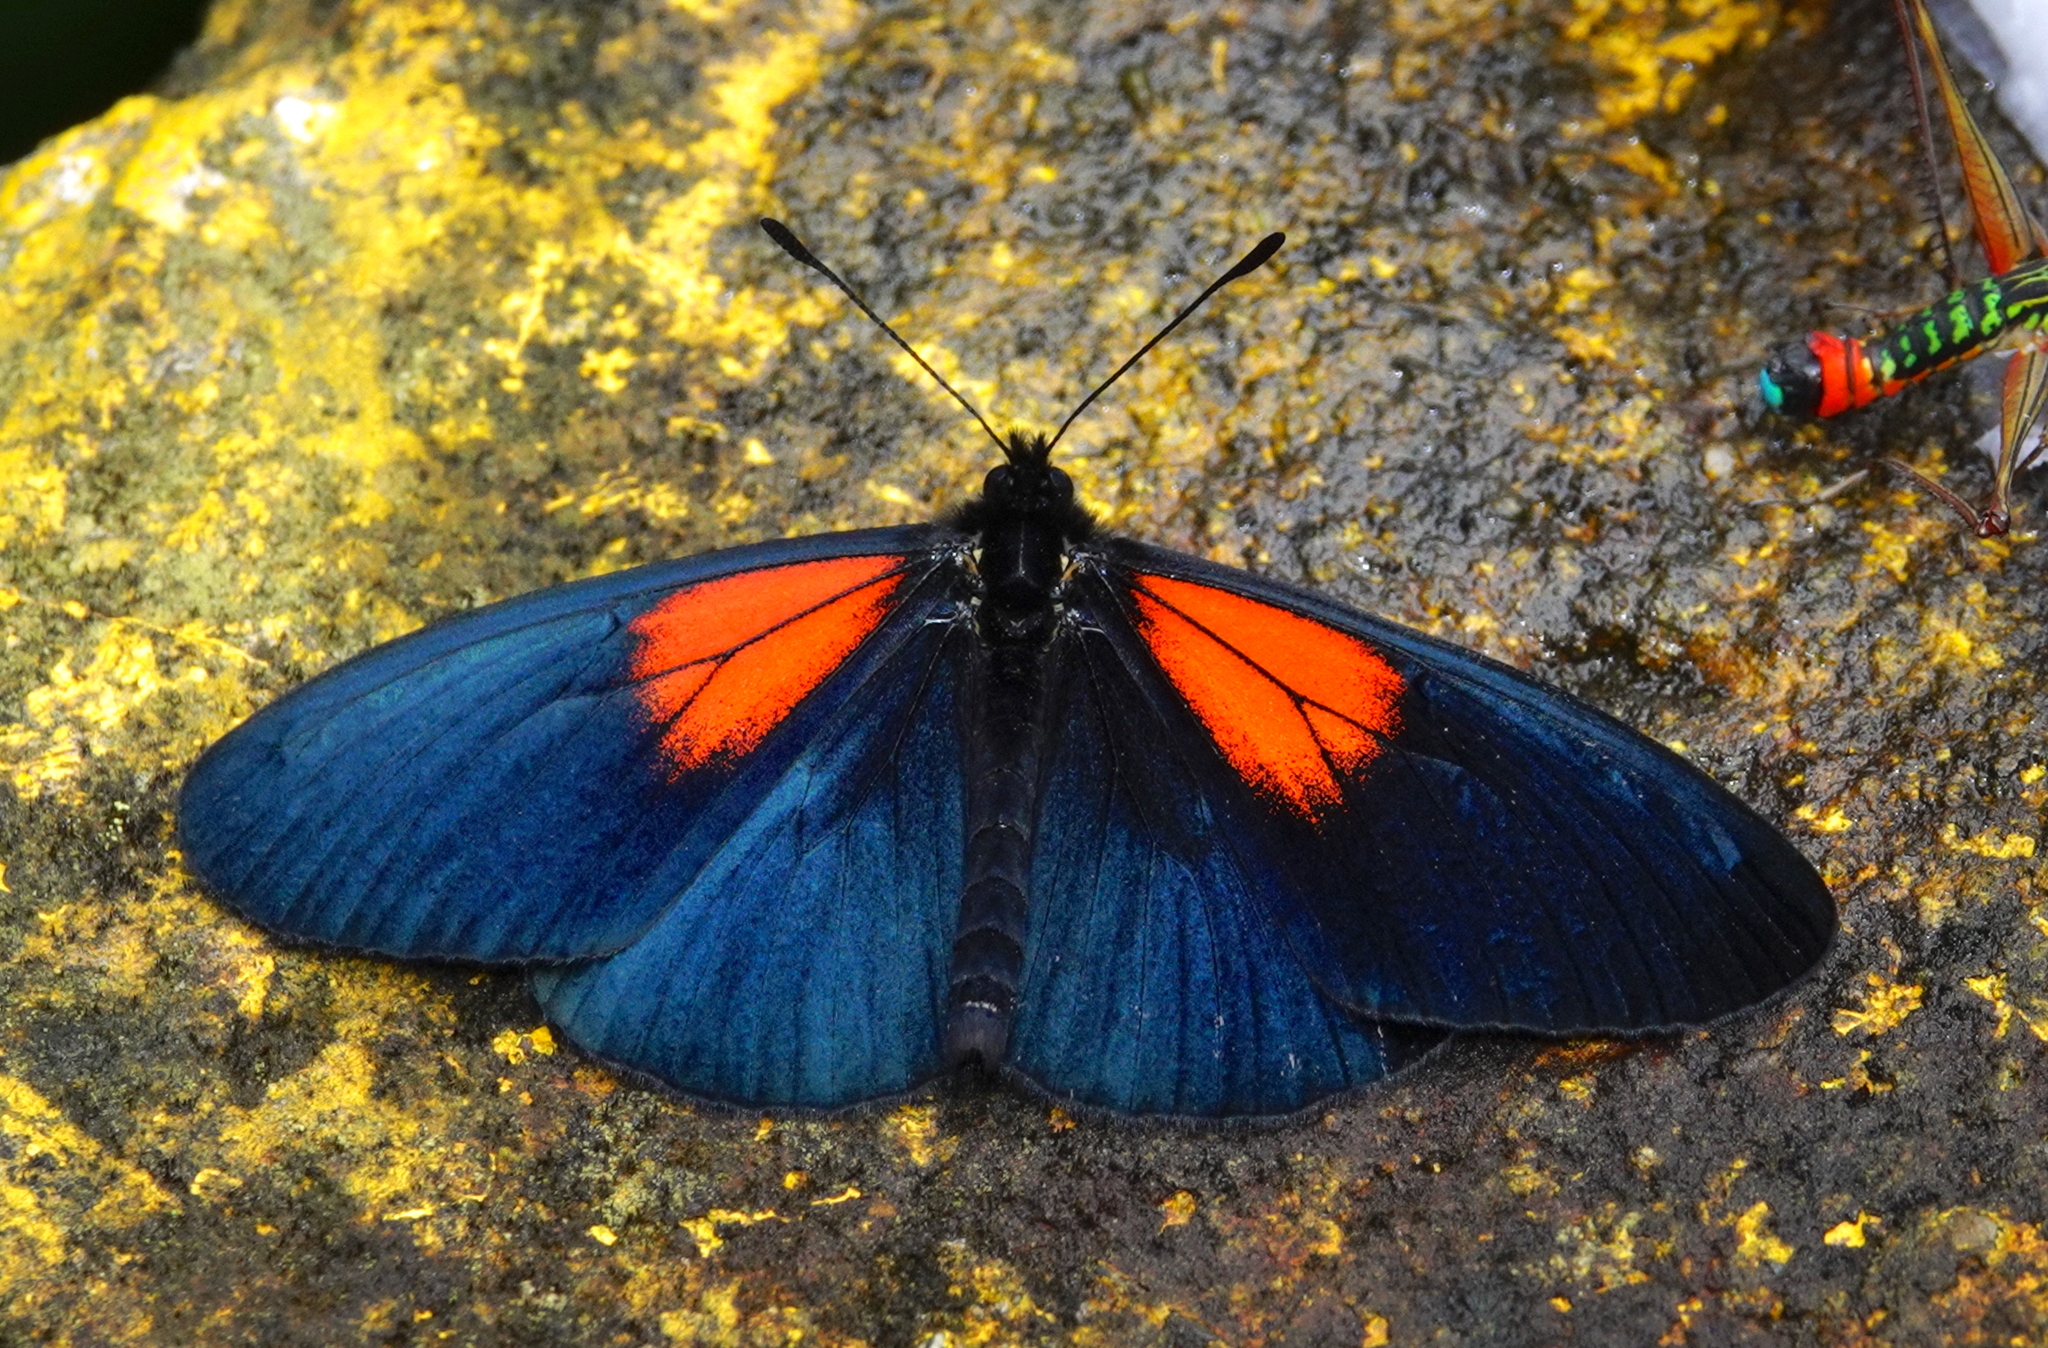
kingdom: Animalia
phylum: Arthropoda
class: Insecta
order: Lepidoptera
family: Nymphalidae
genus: Acraea
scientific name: Acraea Altinote ozomene
